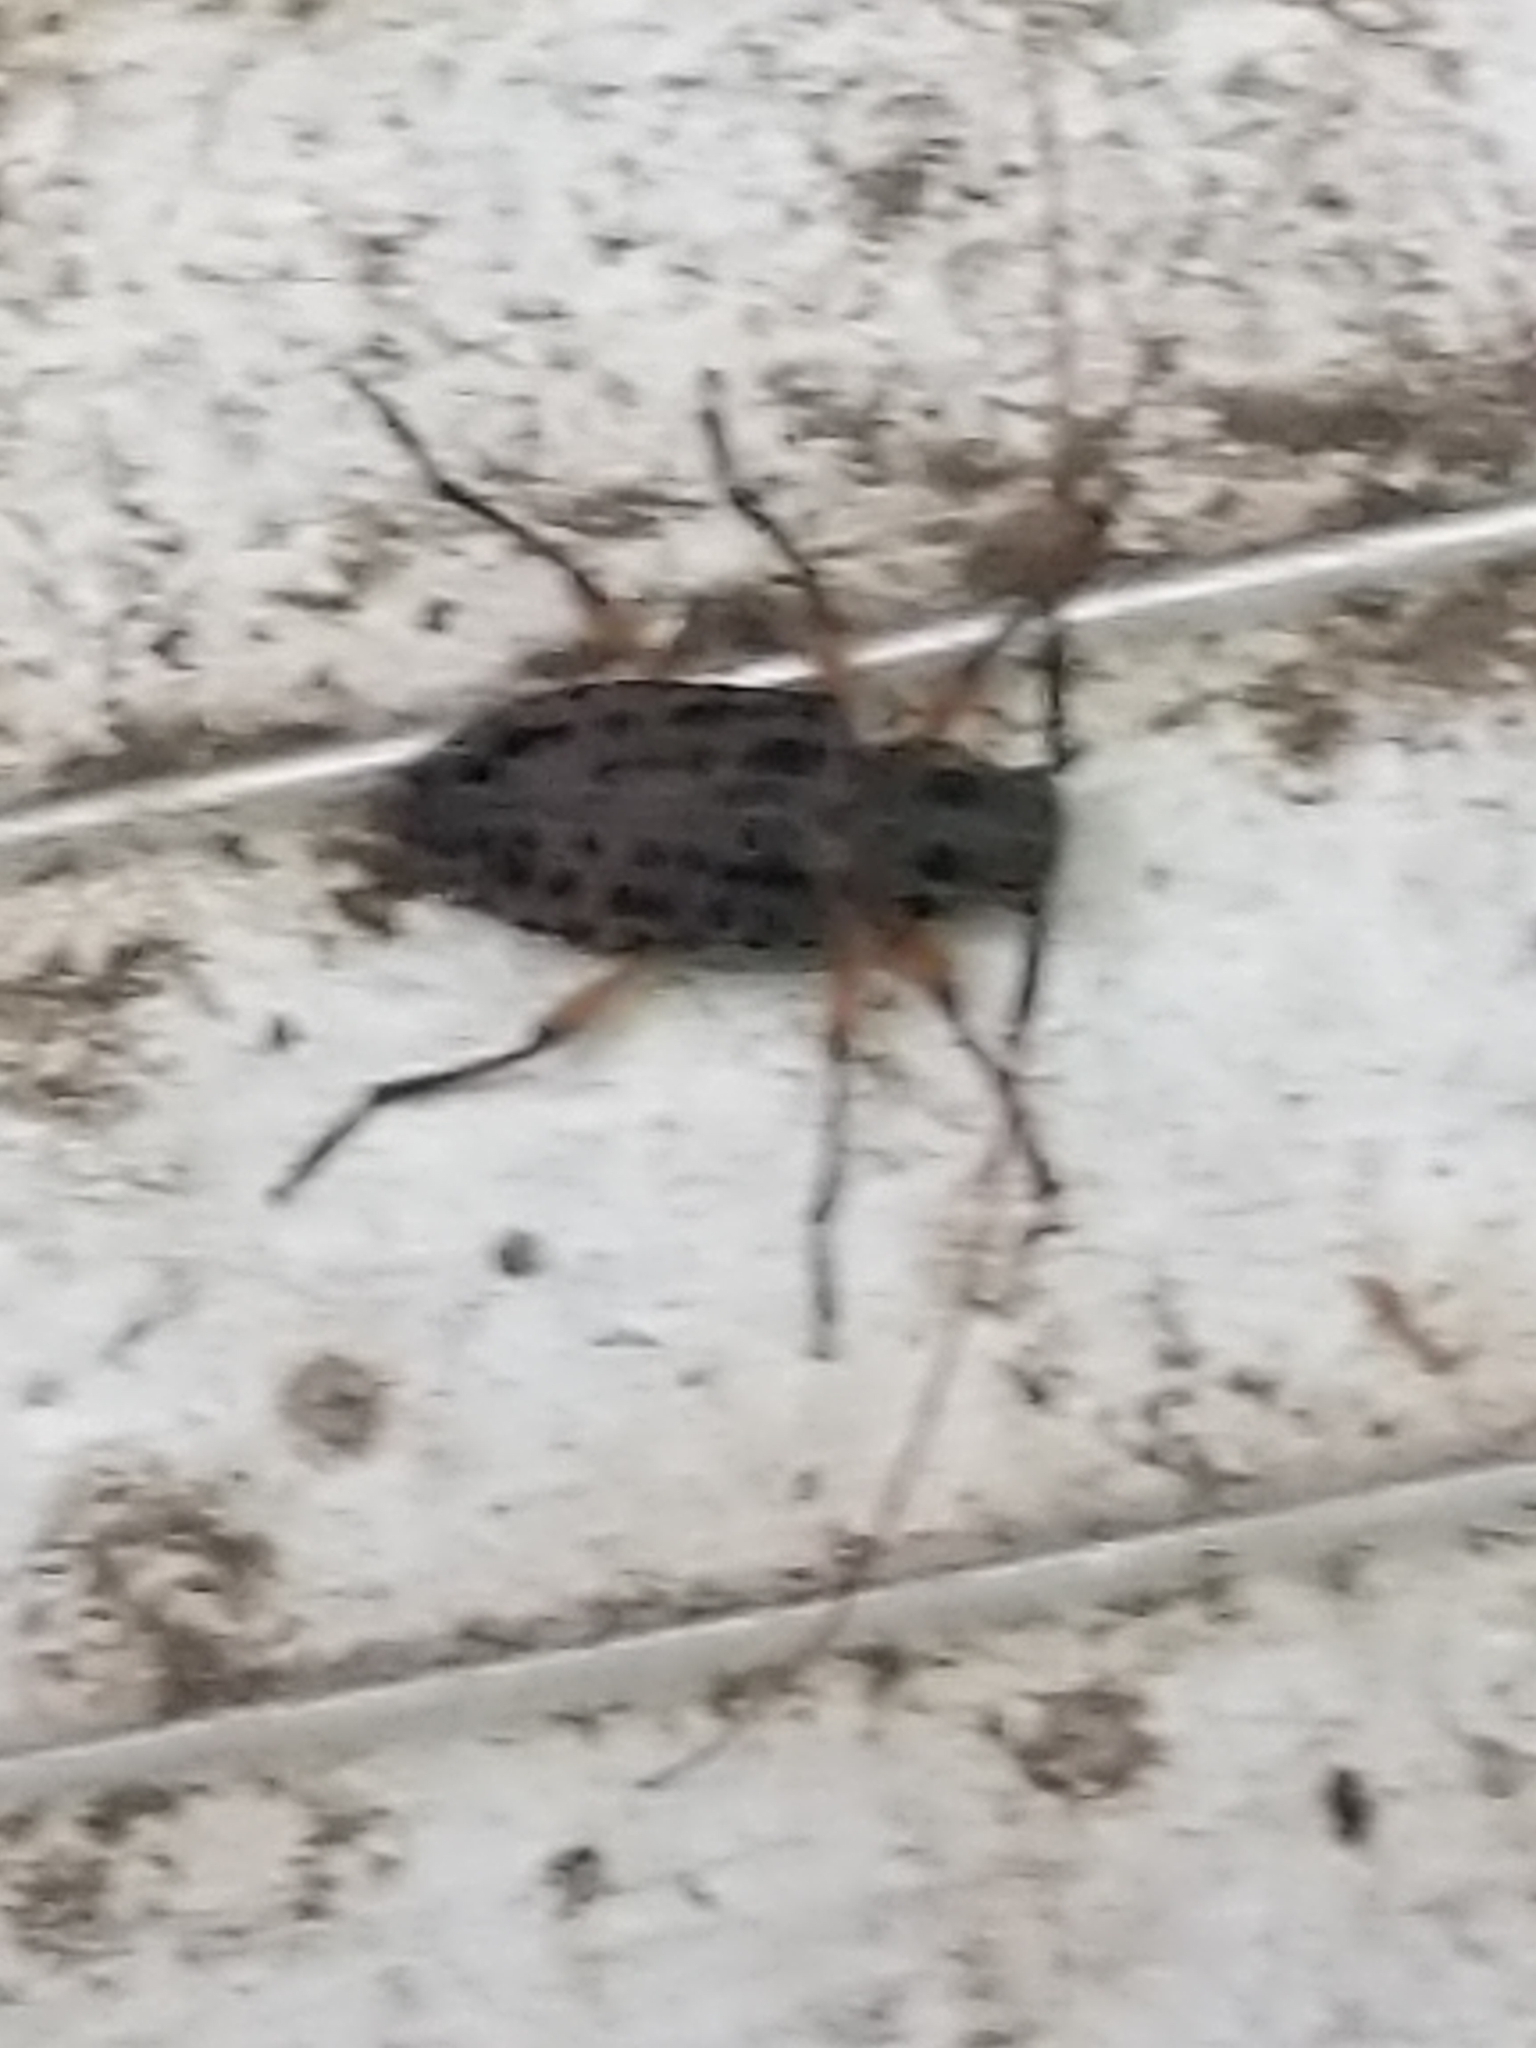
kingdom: Animalia
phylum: Arthropoda
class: Insecta
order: Coleoptera
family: Cerambycidae
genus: Hyperplatys
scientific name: Hyperplatys aspersa
